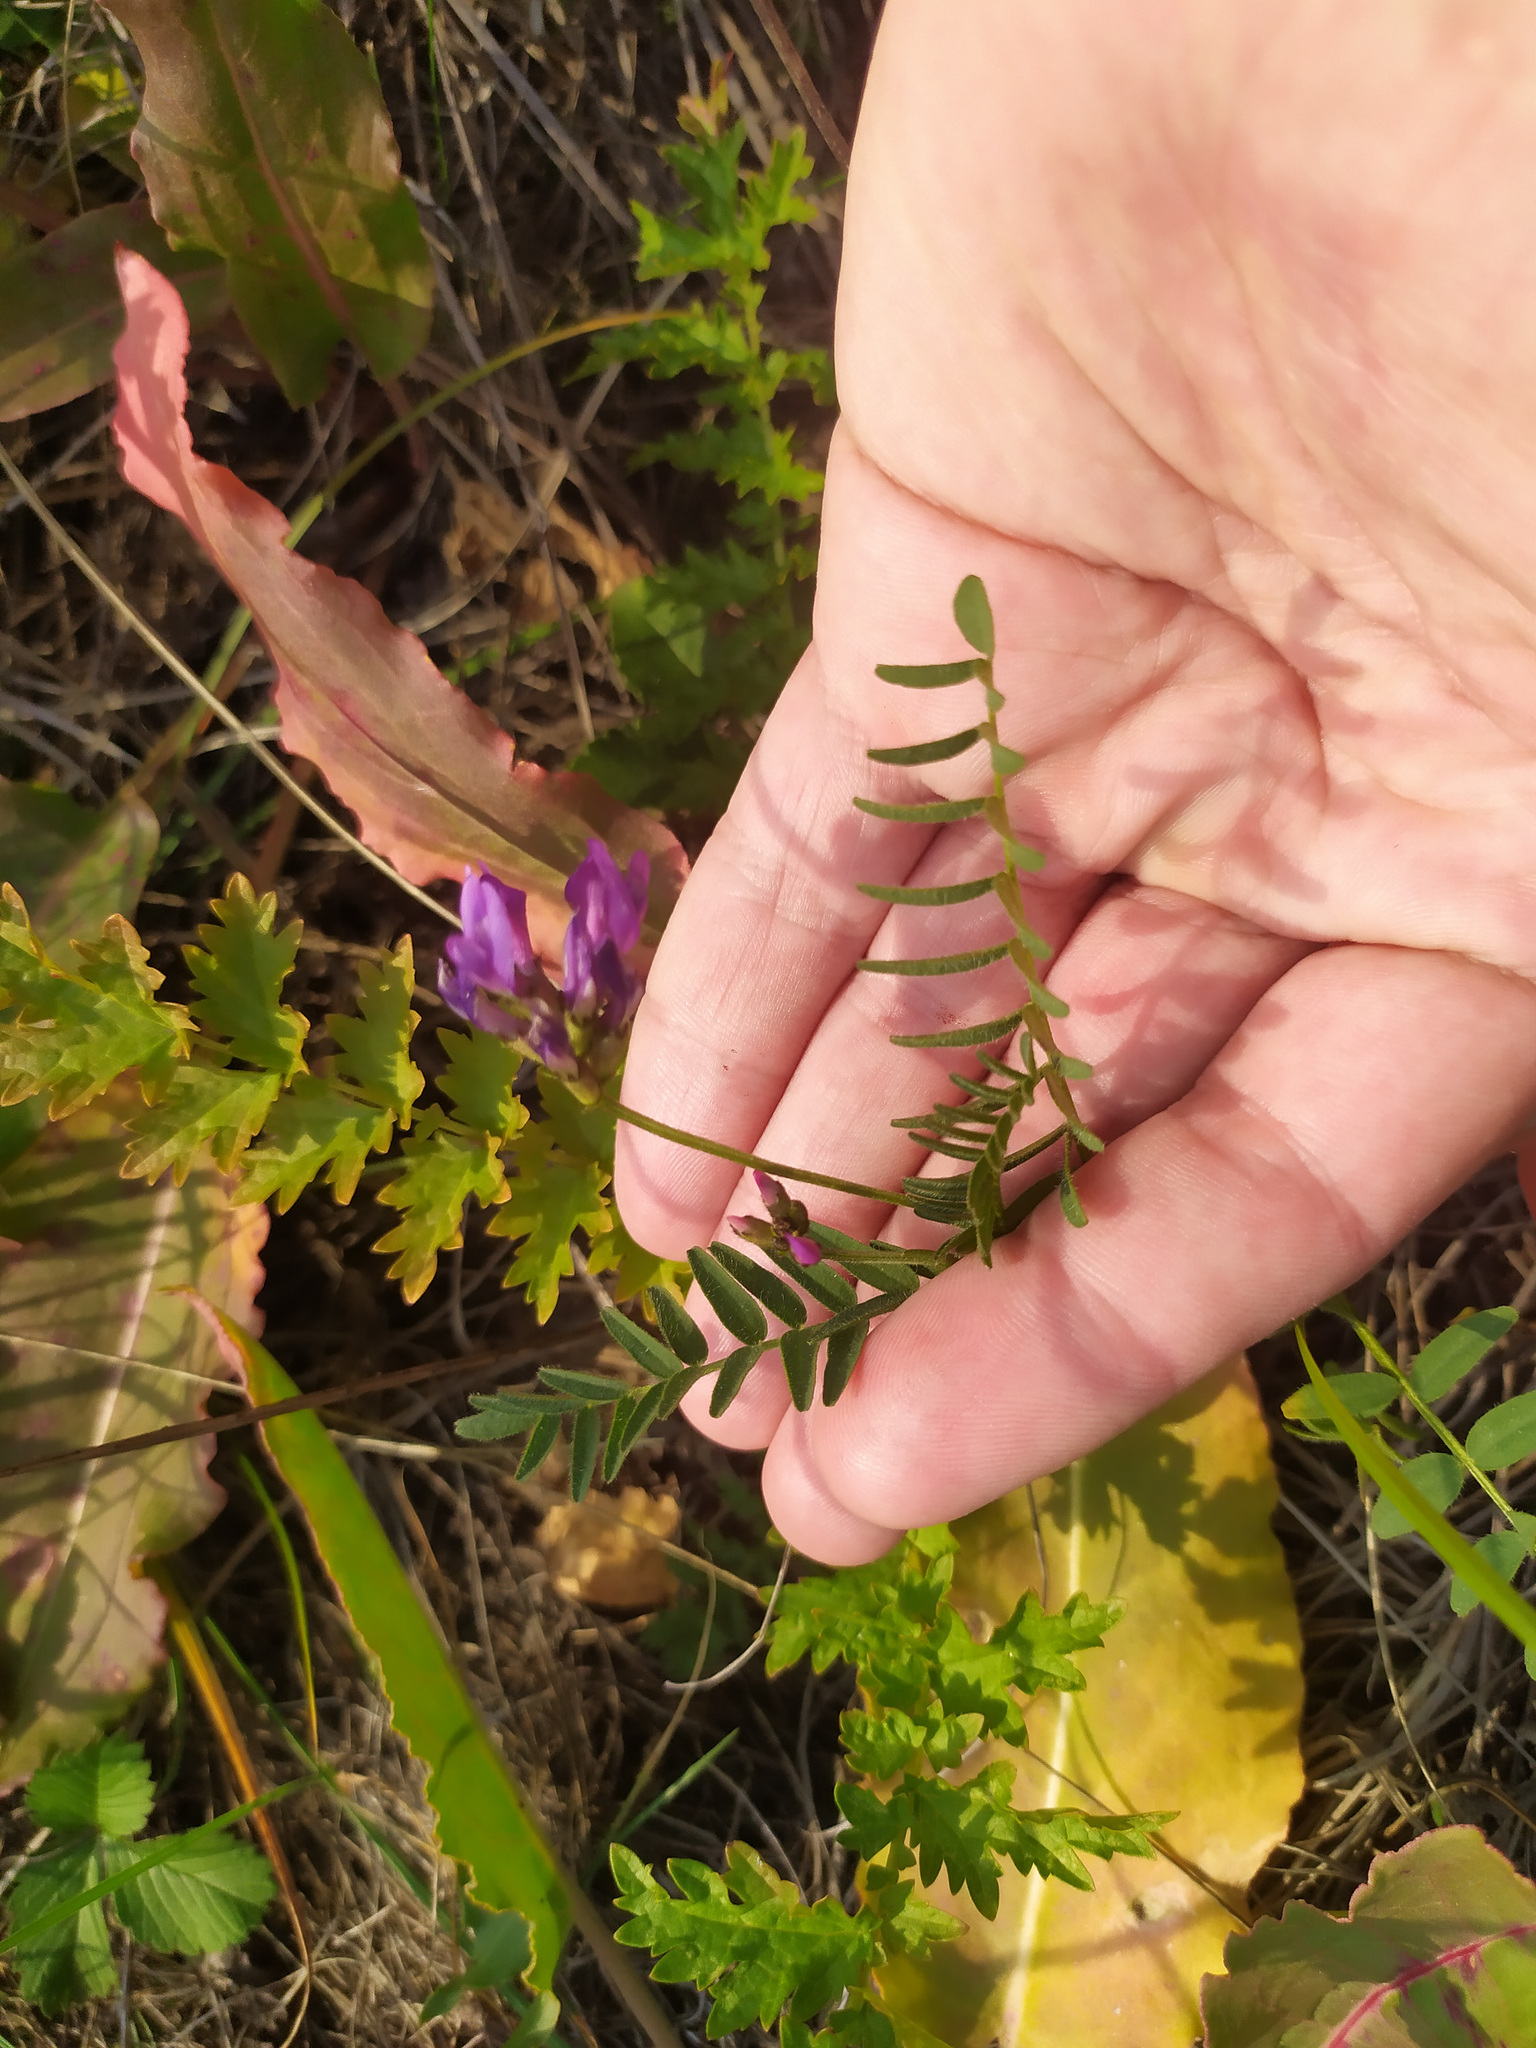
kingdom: Plantae
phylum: Tracheophyta
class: Magnoliopsida
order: Fabales
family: Fabaceae
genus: Astragalus
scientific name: Astragalus danicus
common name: Purple milk-vetch
